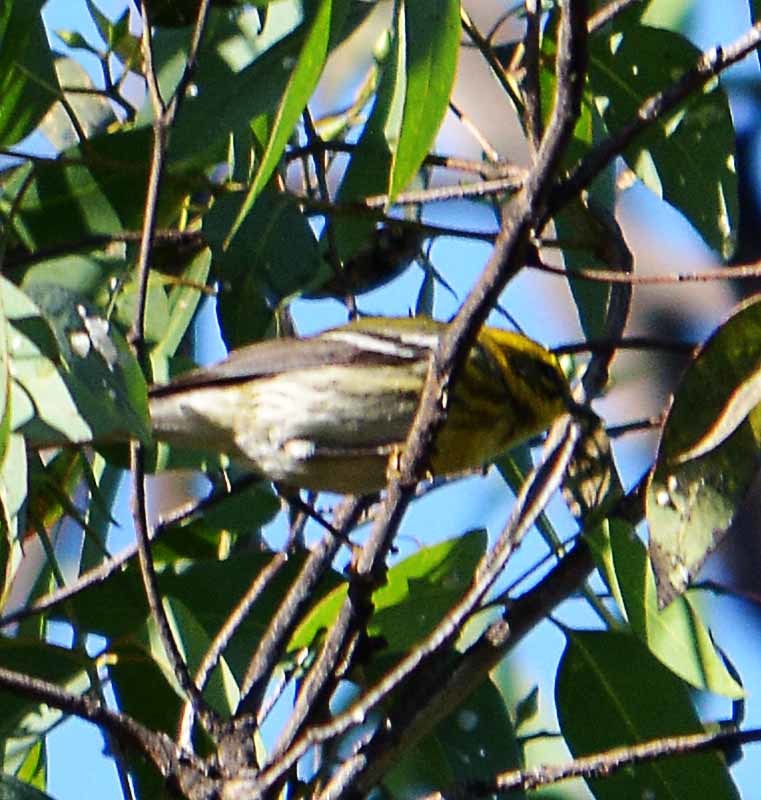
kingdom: Animalia
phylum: Chordata
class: Aves
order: Passeriformes
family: Parulidae
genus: Setophaga
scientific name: Setophaga townsendi
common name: Townsend's warbler
